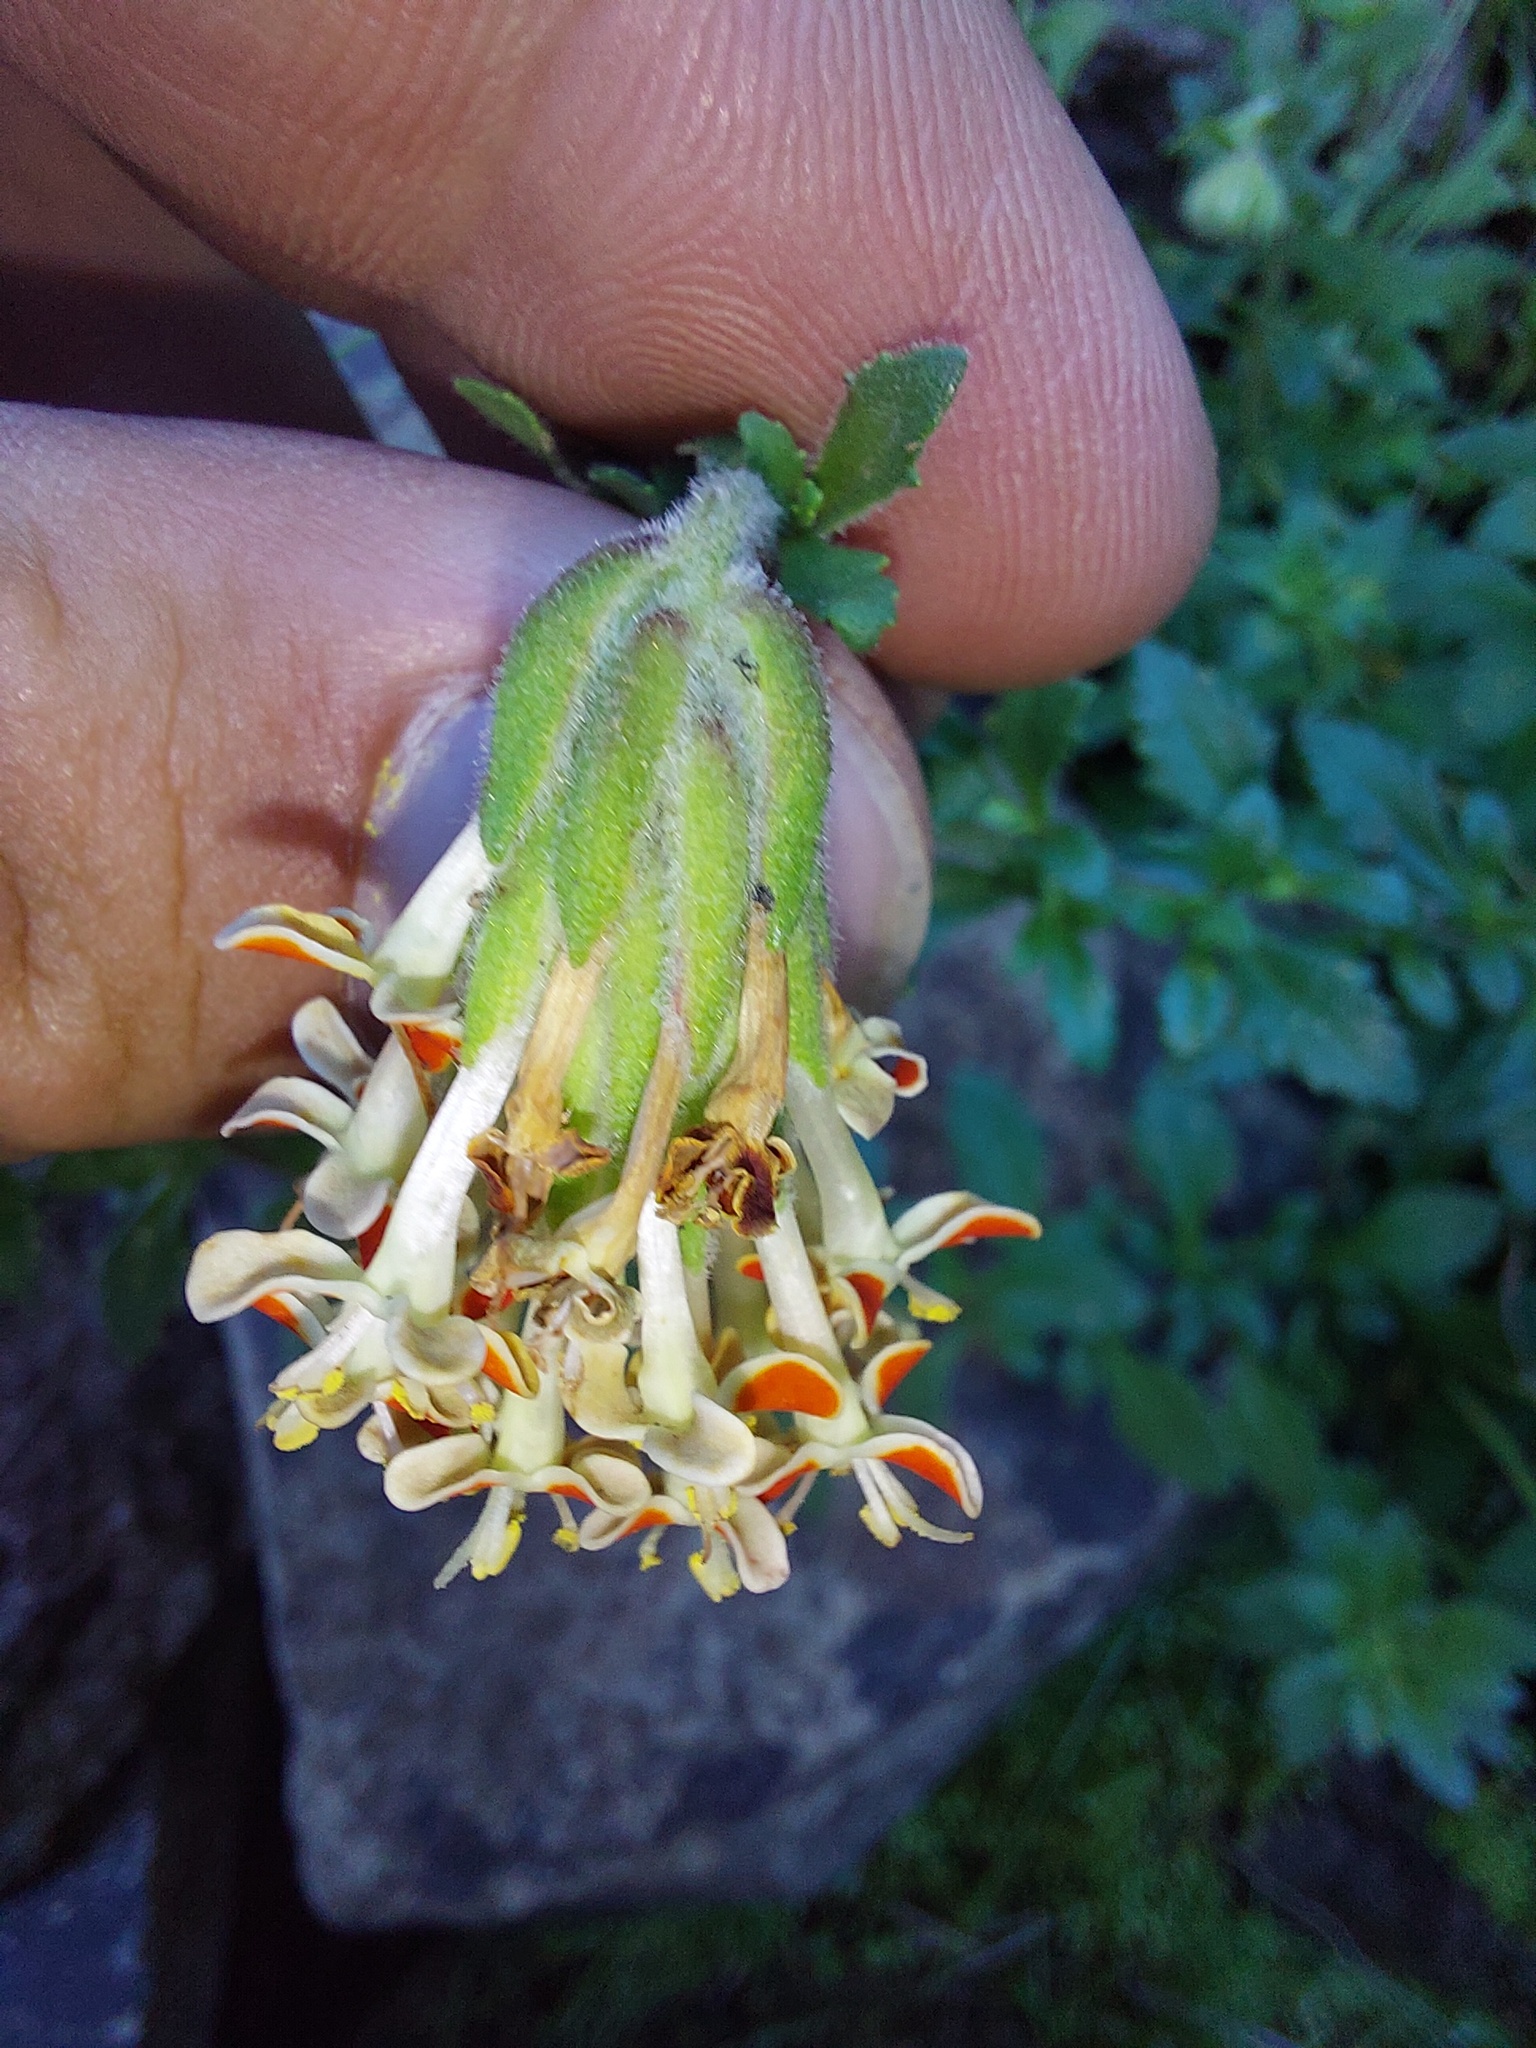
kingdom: Plantae
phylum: Tracheophyta
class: Magnoliopsida
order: Lamiales
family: Scrophulariaceae
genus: Glumicalyx
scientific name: Glumicalyx flanaganii
